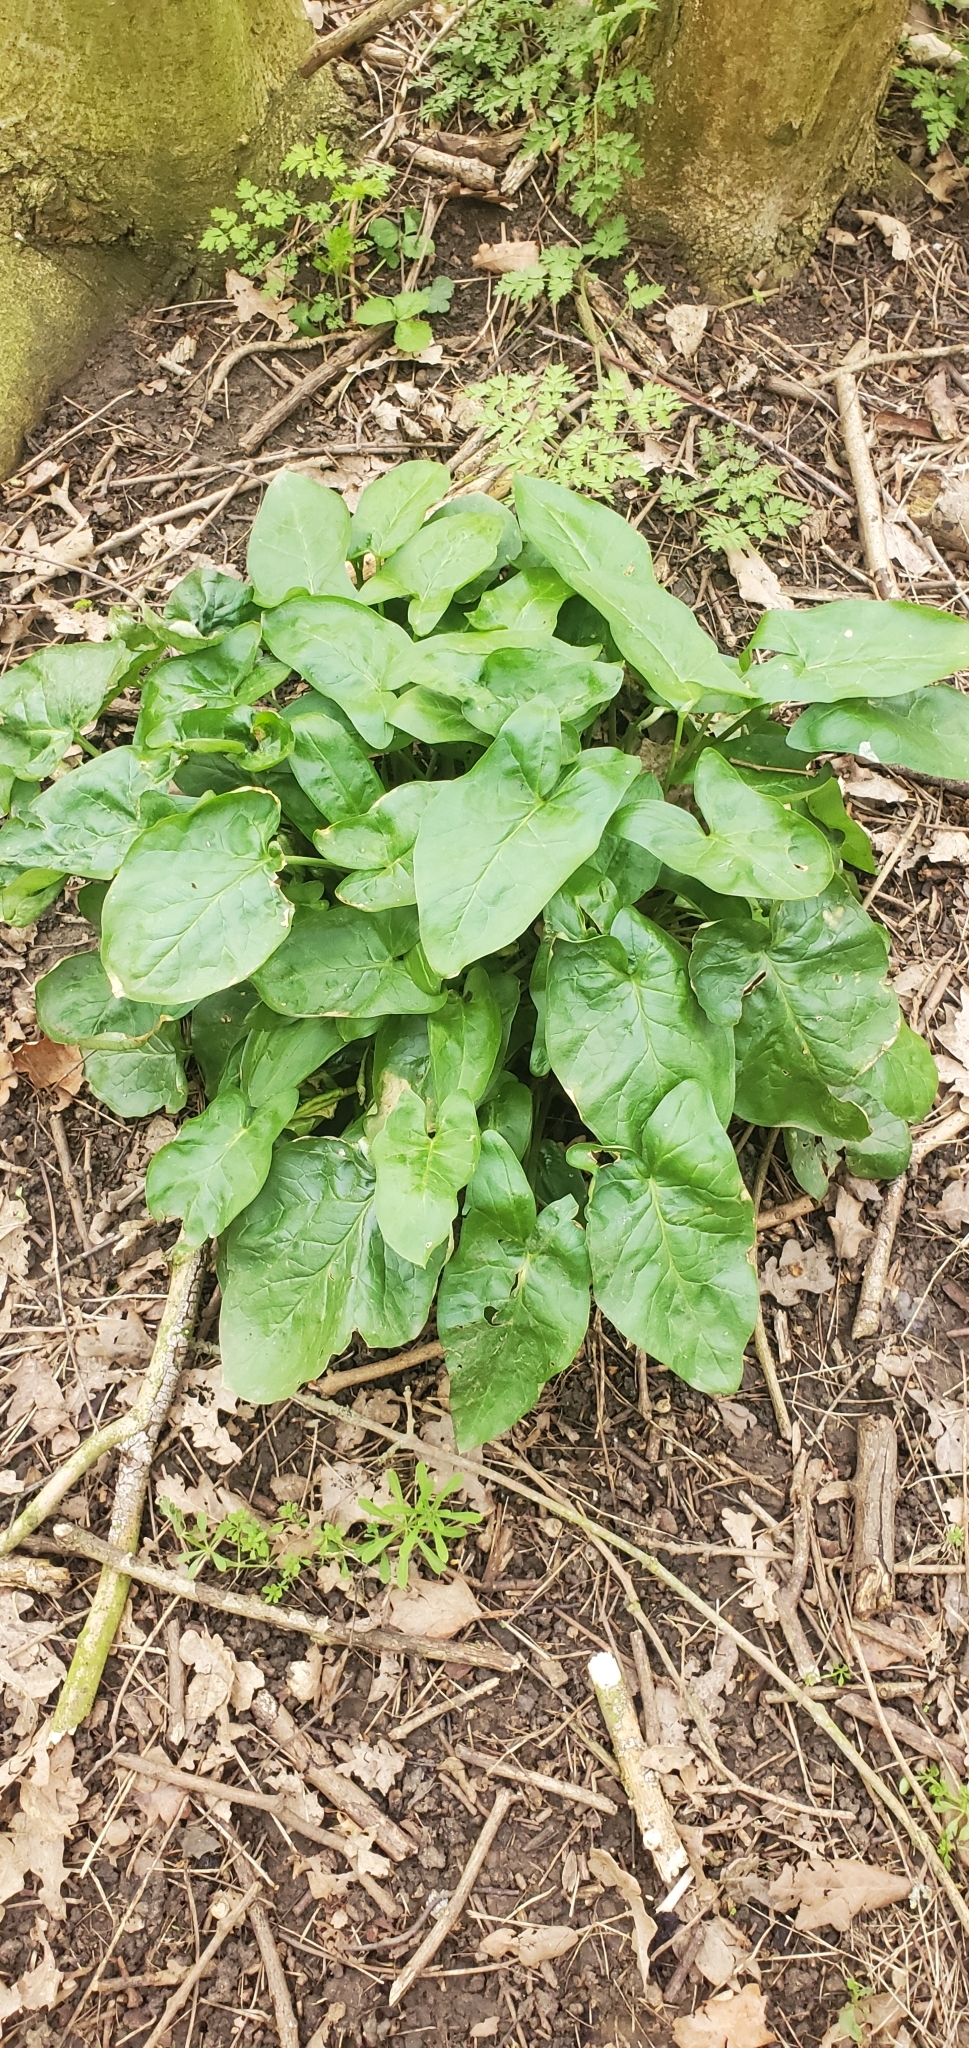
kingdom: Plantae
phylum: Tracheophyta
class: Liliopsida
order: Alismatales
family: Araceae
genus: Arum
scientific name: Arum maculatum
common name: Lords-and-ladies
